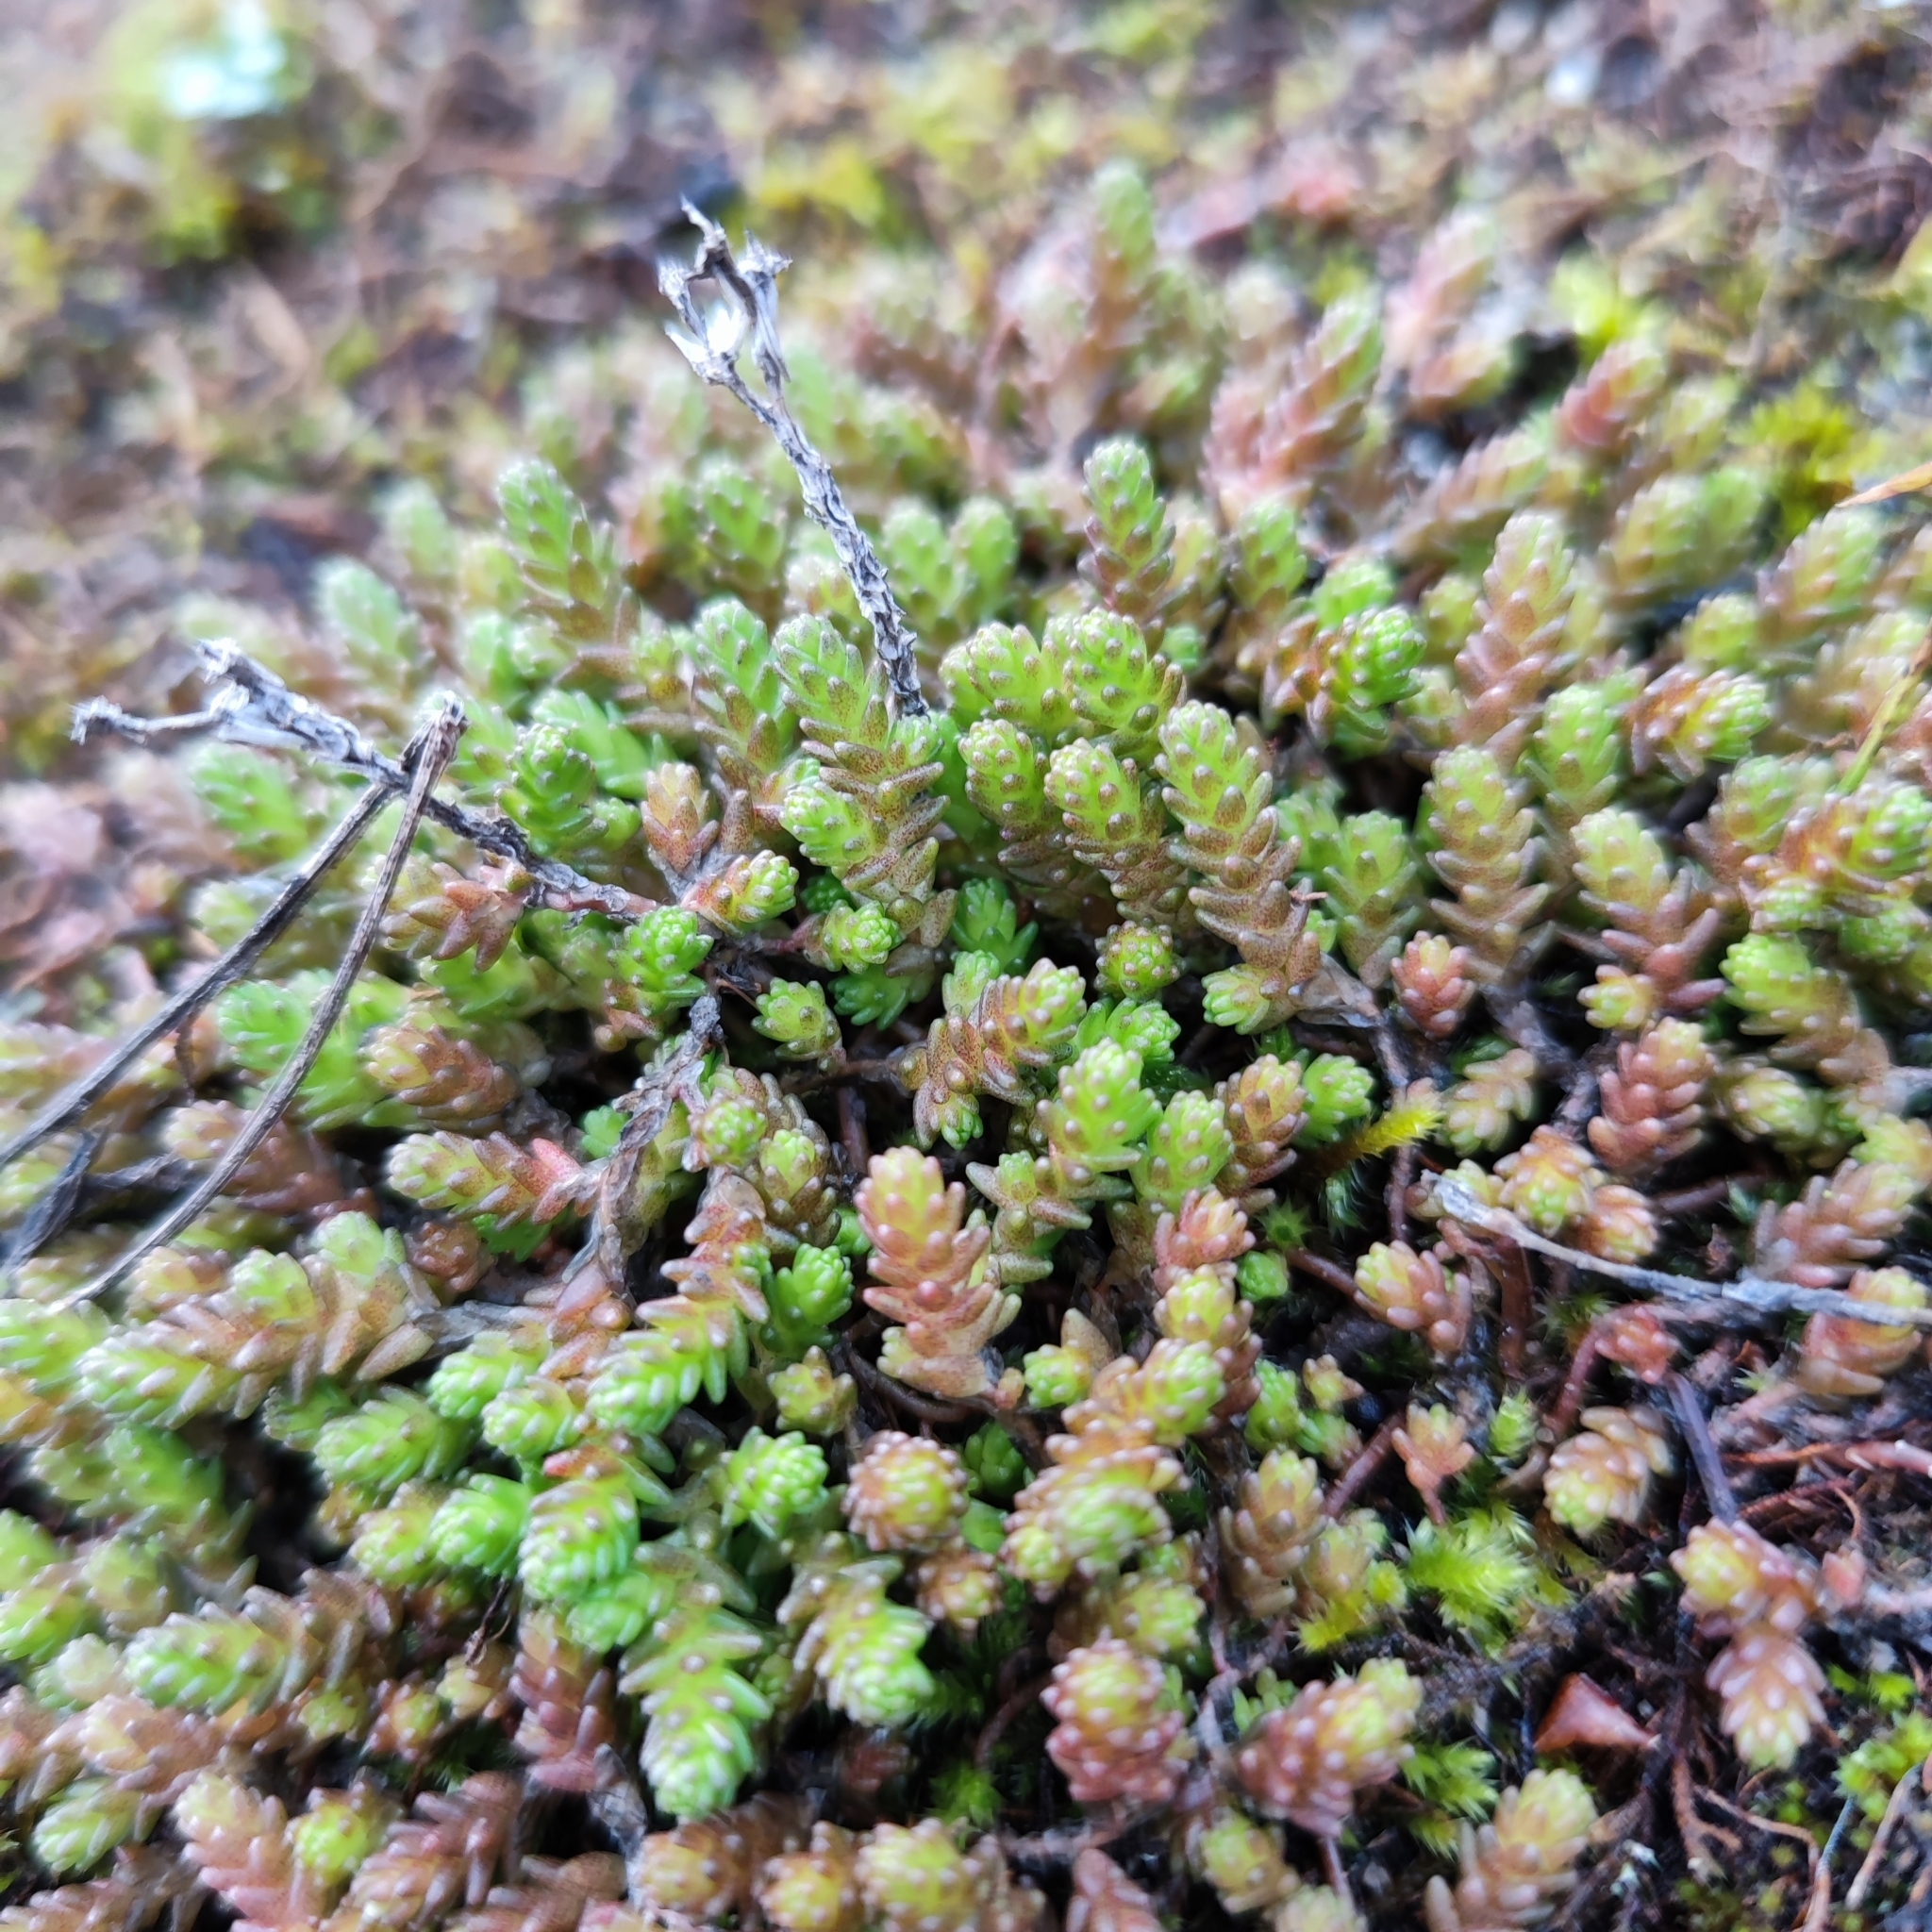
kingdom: Plantae
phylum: Tracheophyta
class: Magnoliopsida
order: Saxifragales
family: Crassulaceae
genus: Sedum
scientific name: Sedum acre
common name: Biting stonecrop
